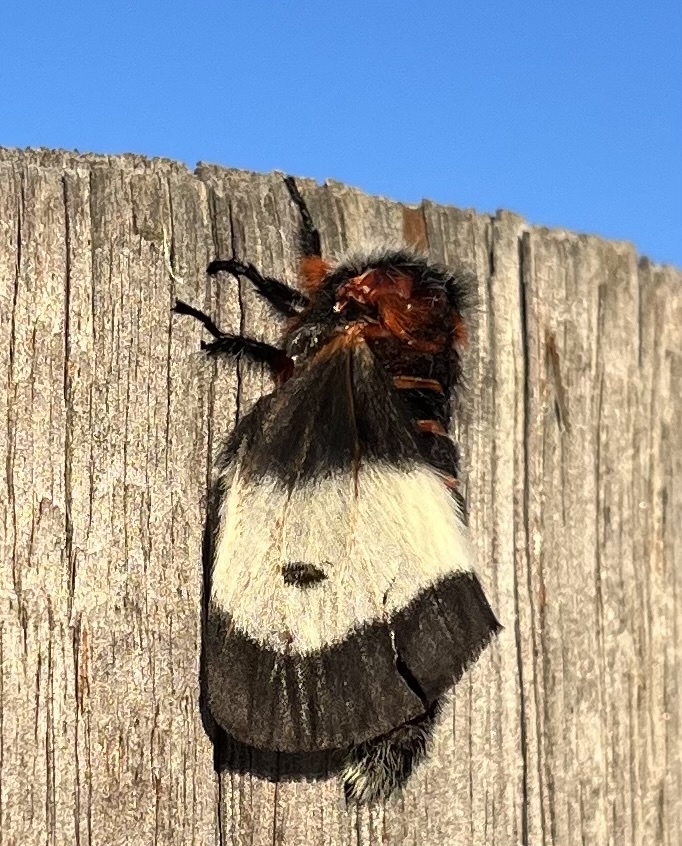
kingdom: Animalia
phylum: Arthropoda
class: Insecta
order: Lepidoptera
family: Saturniidae
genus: Hemileuca
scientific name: Hemileuca maia
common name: Eastern buckmoth
